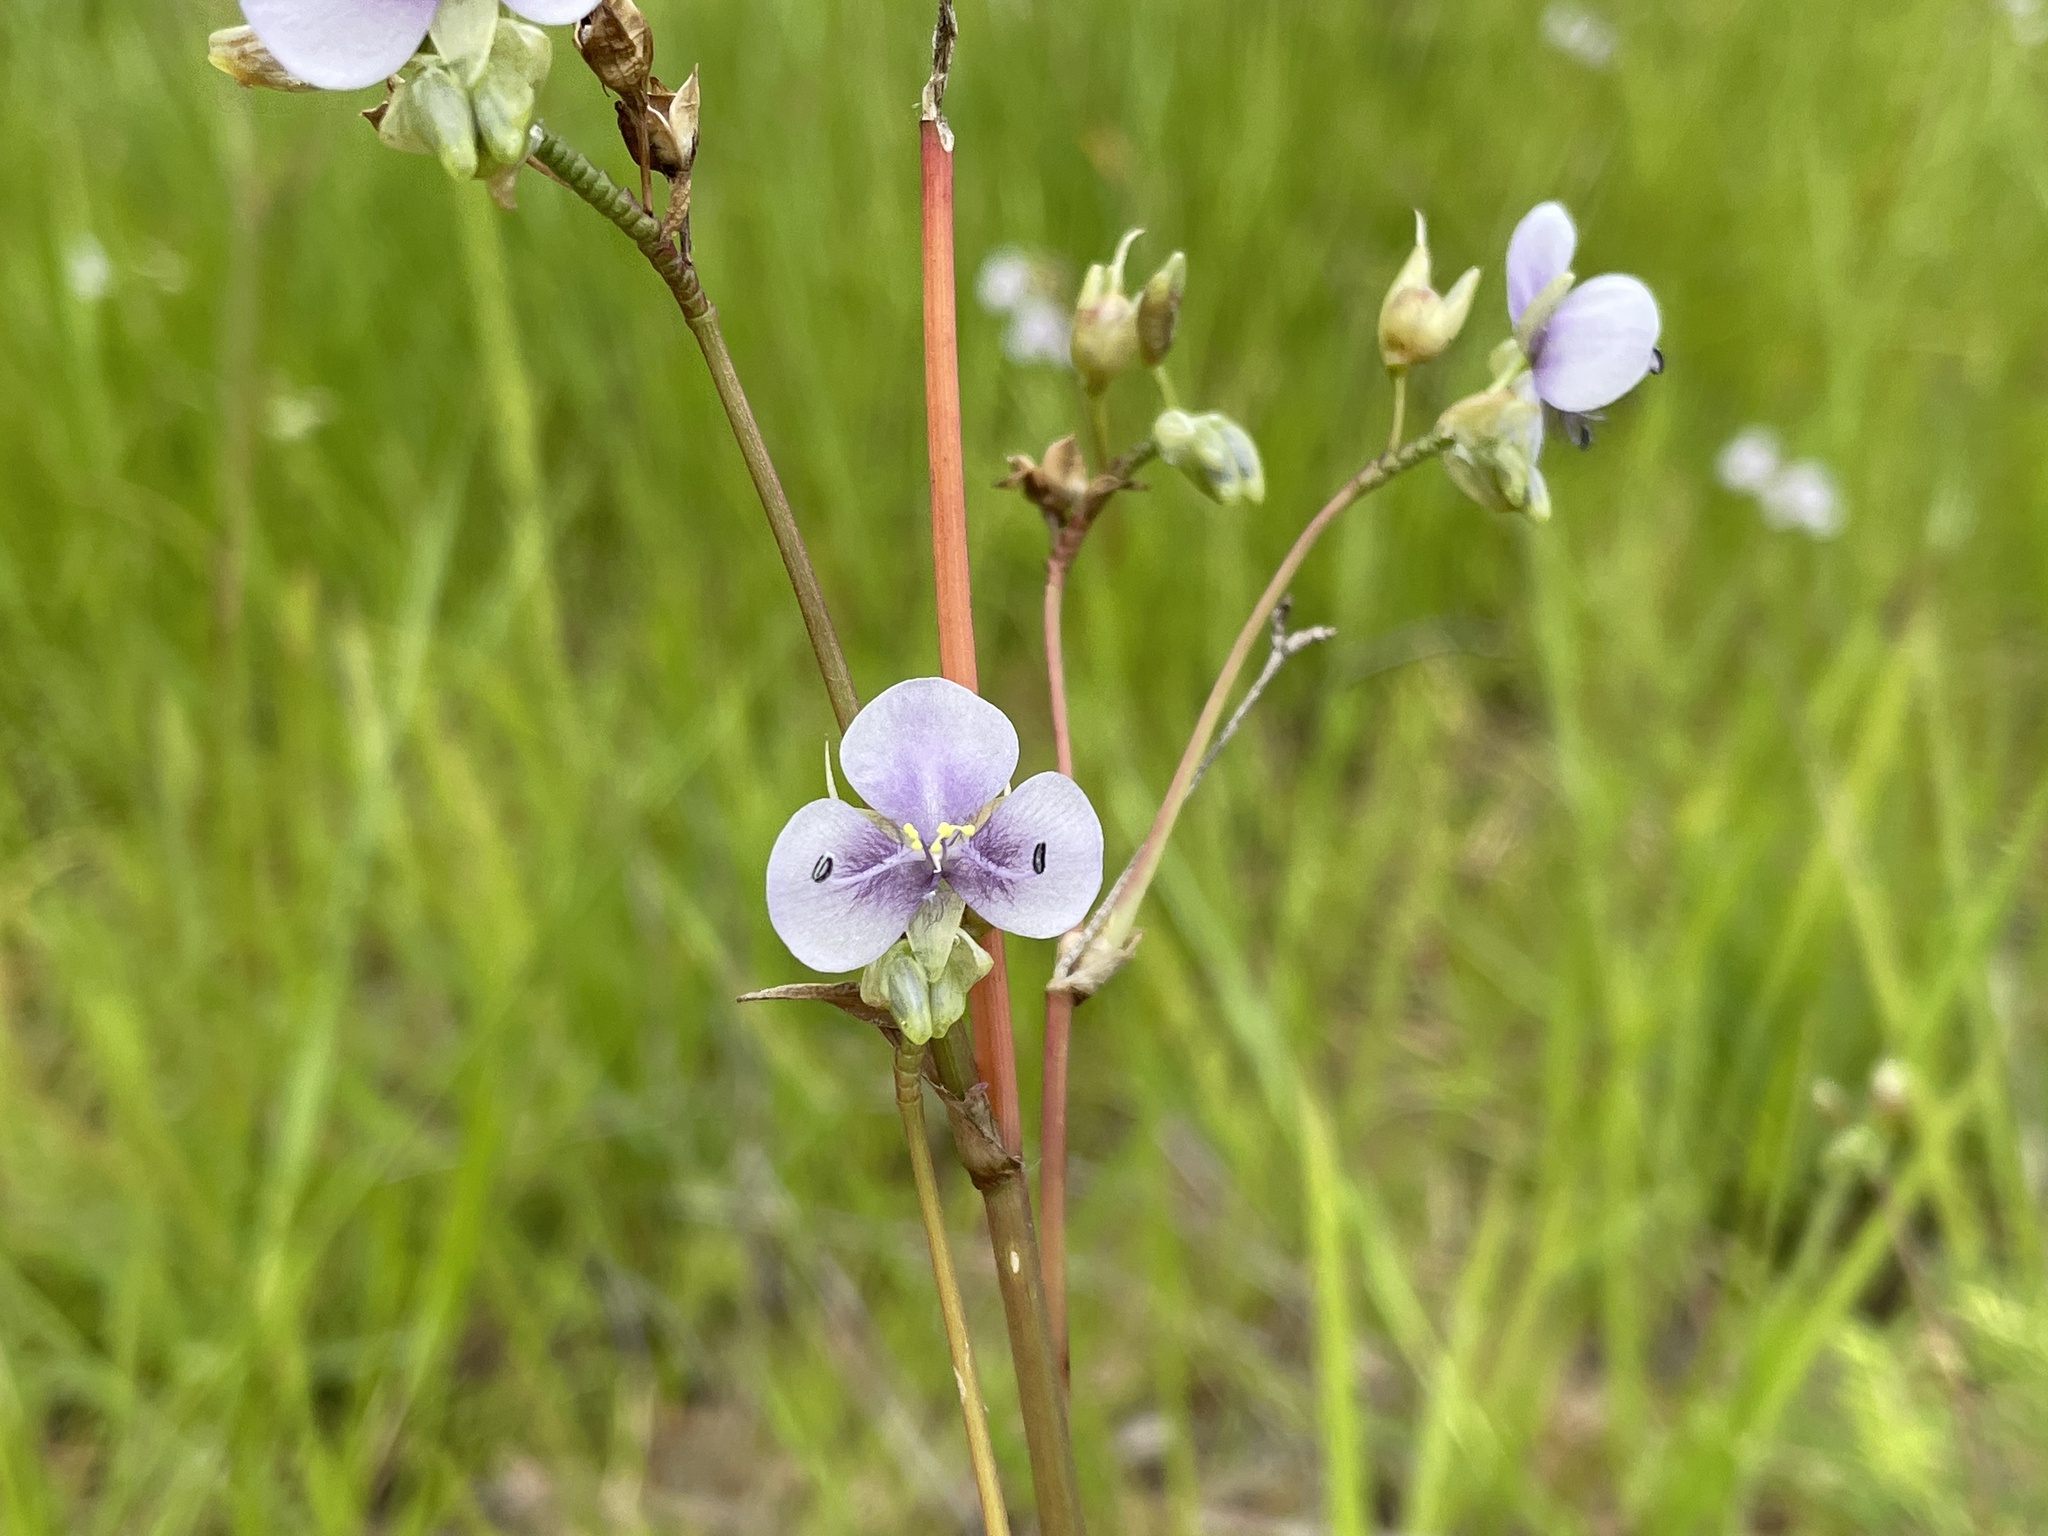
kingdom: Plantae
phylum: Tracheophyta
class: Liliopsida
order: Commelinales
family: Commelinaceae
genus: Murdannia
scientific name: Murdannia simplex
